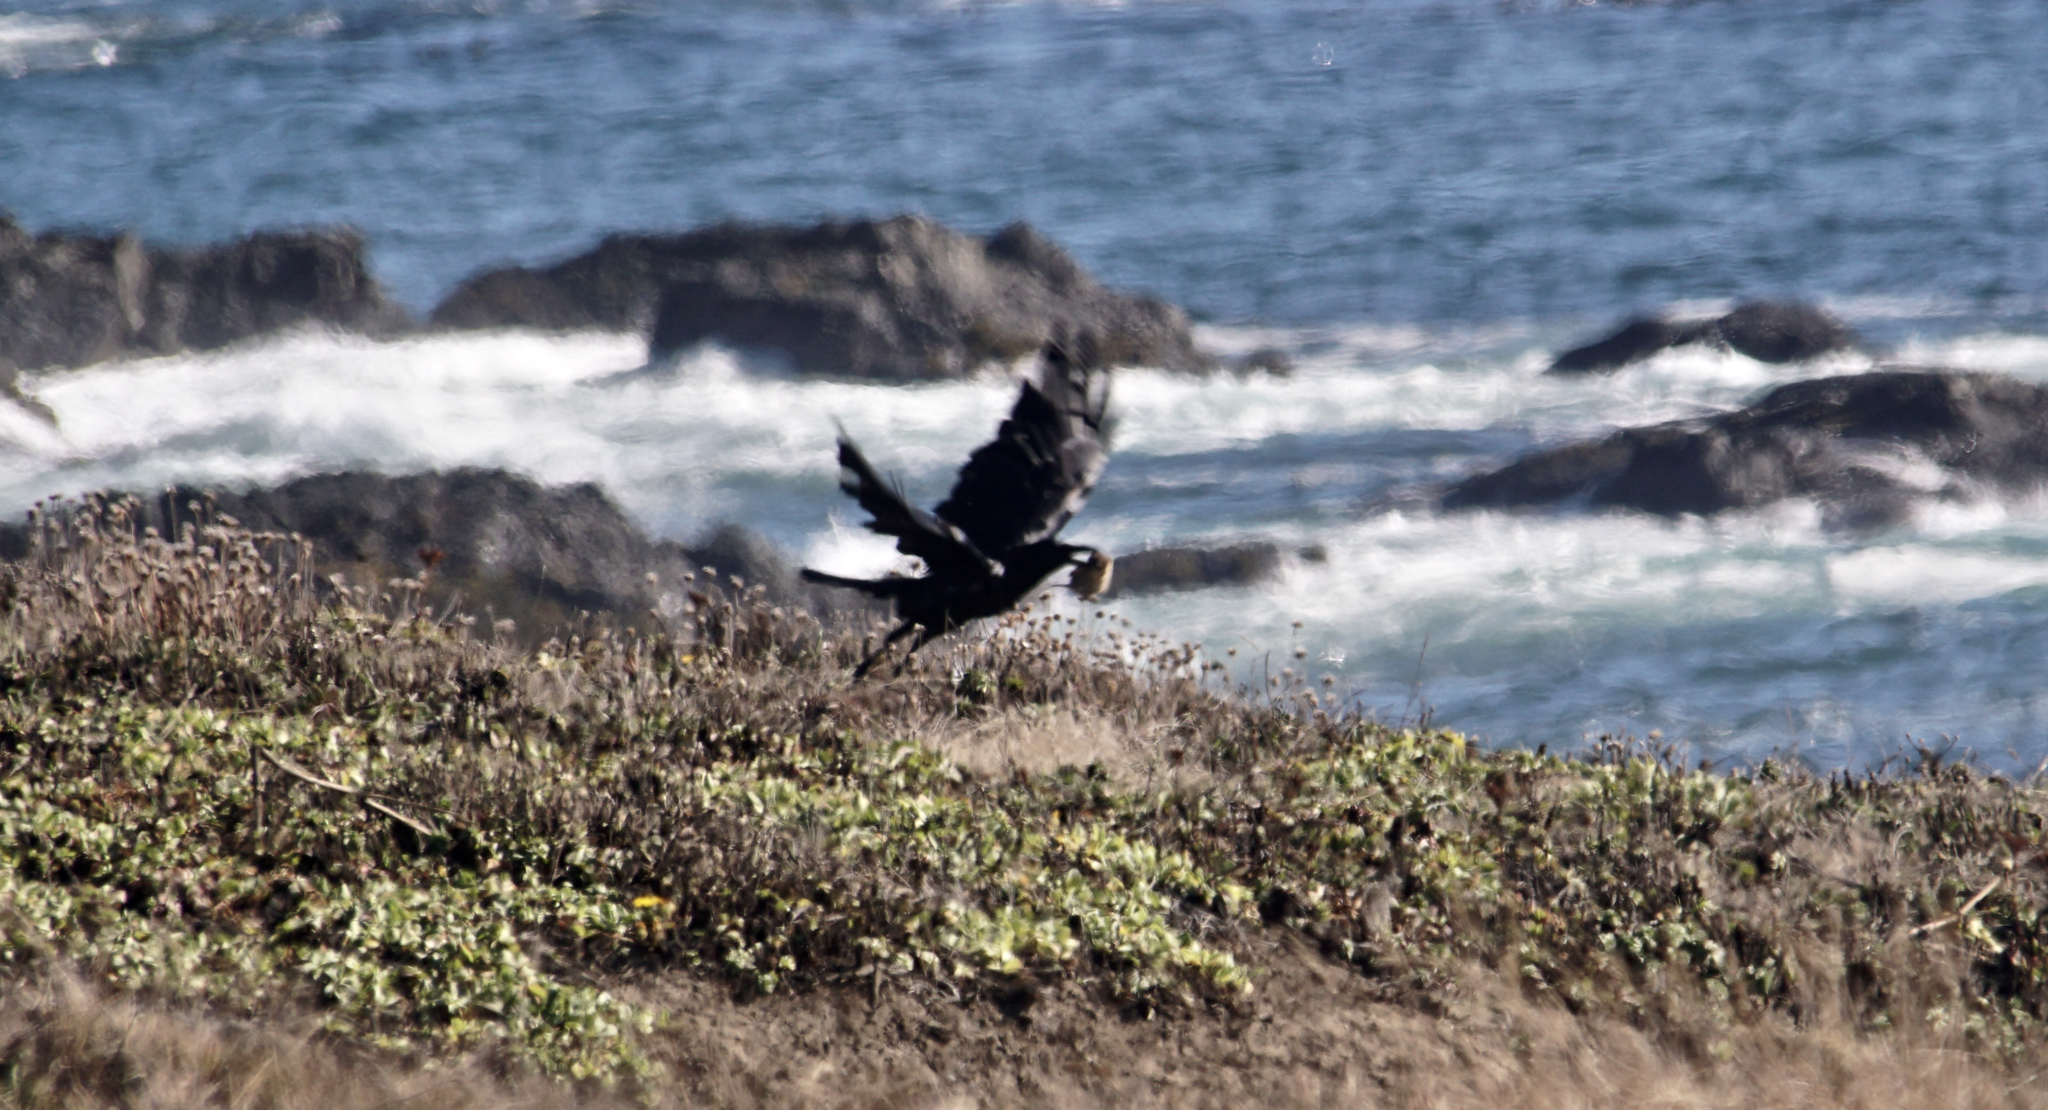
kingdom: Animalia
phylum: Chordata
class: Aves
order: Passeriformes
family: Corvidae
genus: Corvus
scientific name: Corvus corax
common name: Common raven
